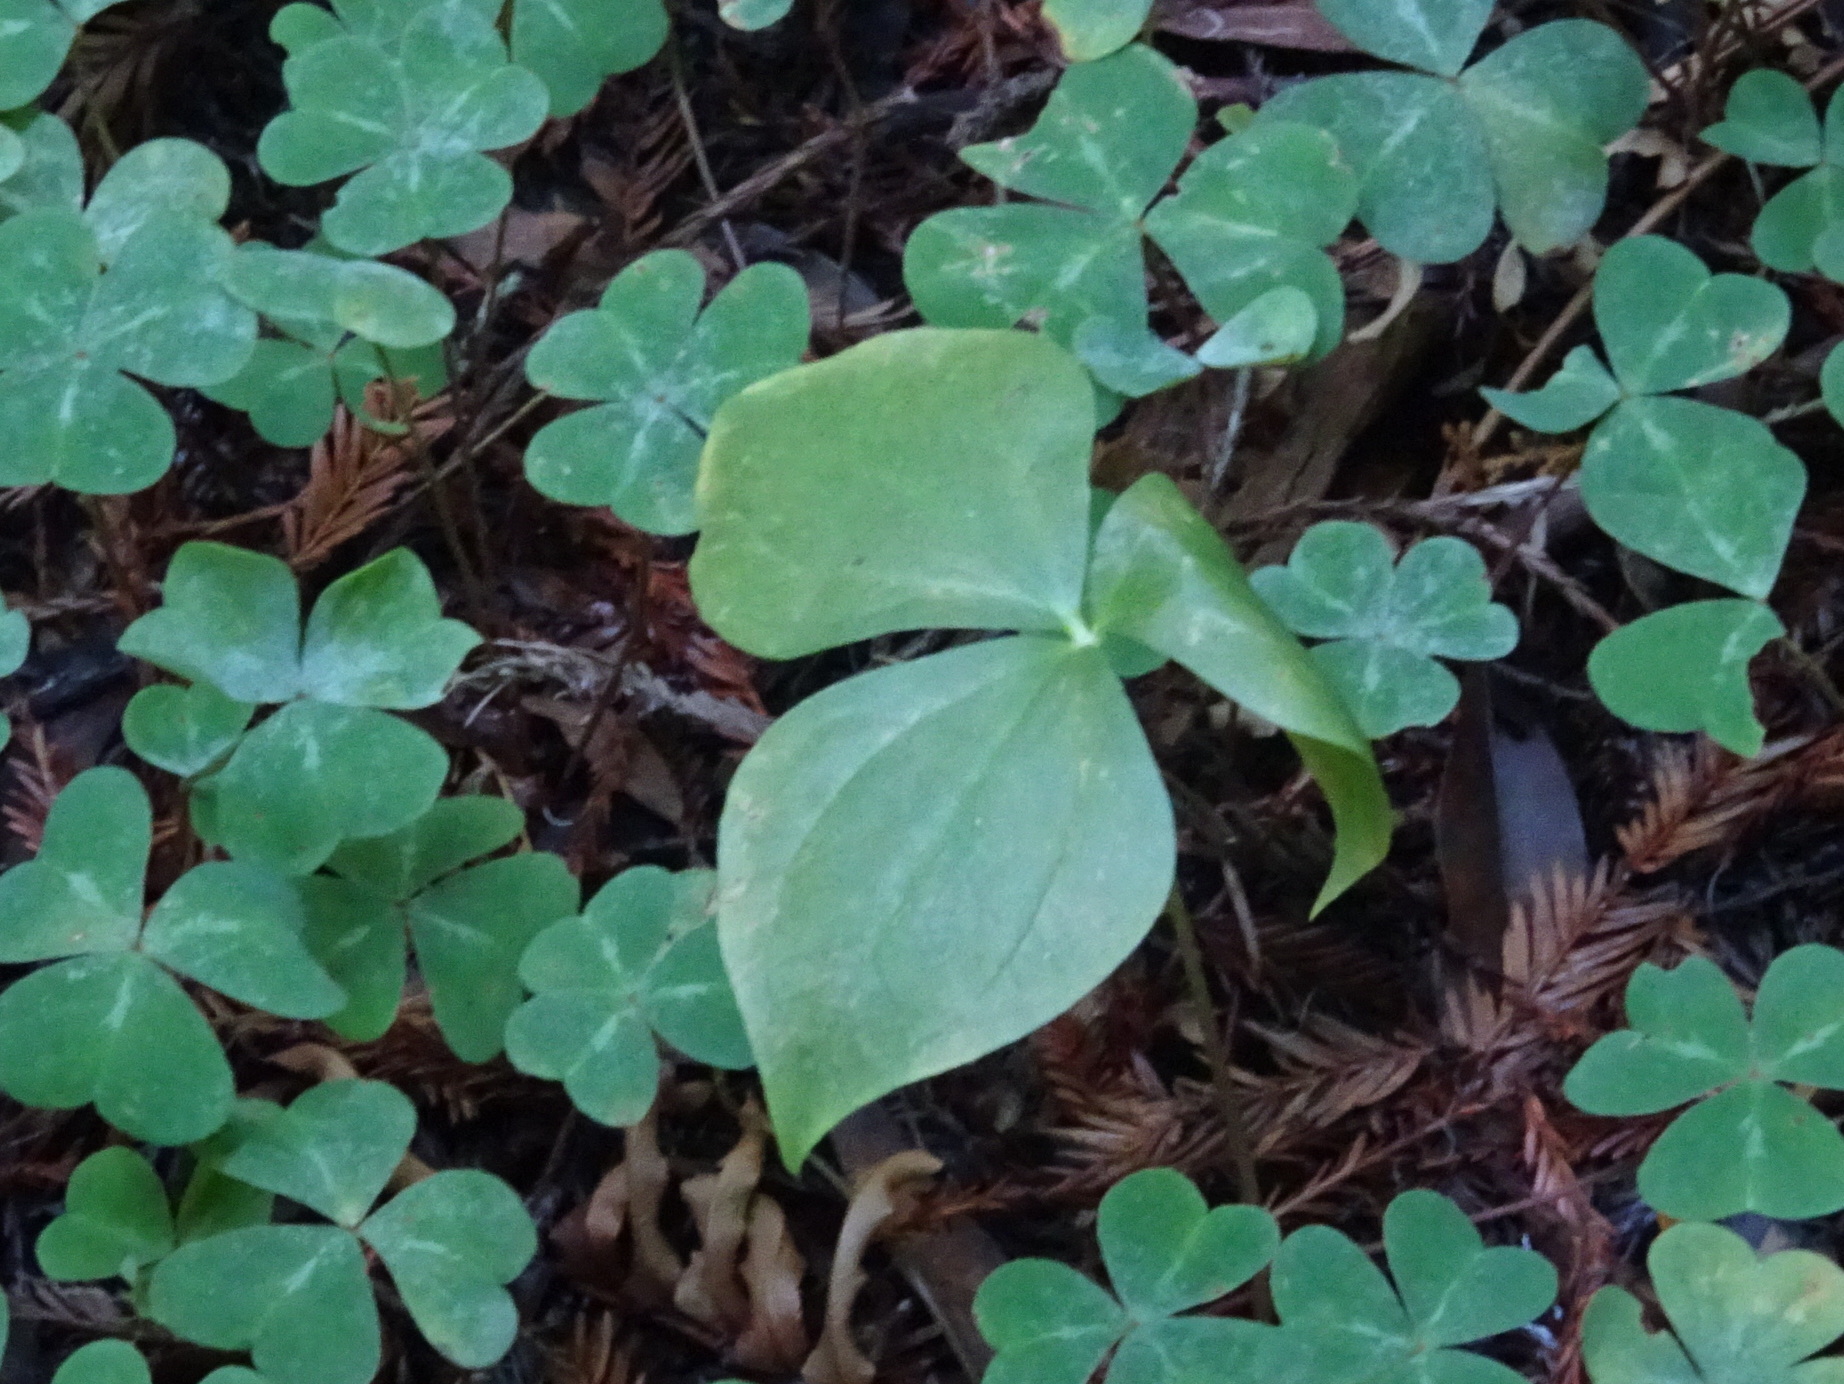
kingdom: Plantae
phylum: Tracheophyta
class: Liliopsida
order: Liliales
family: Melanthiaceae
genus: Trillium
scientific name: Trillium ovatum
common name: Pacific trillium
